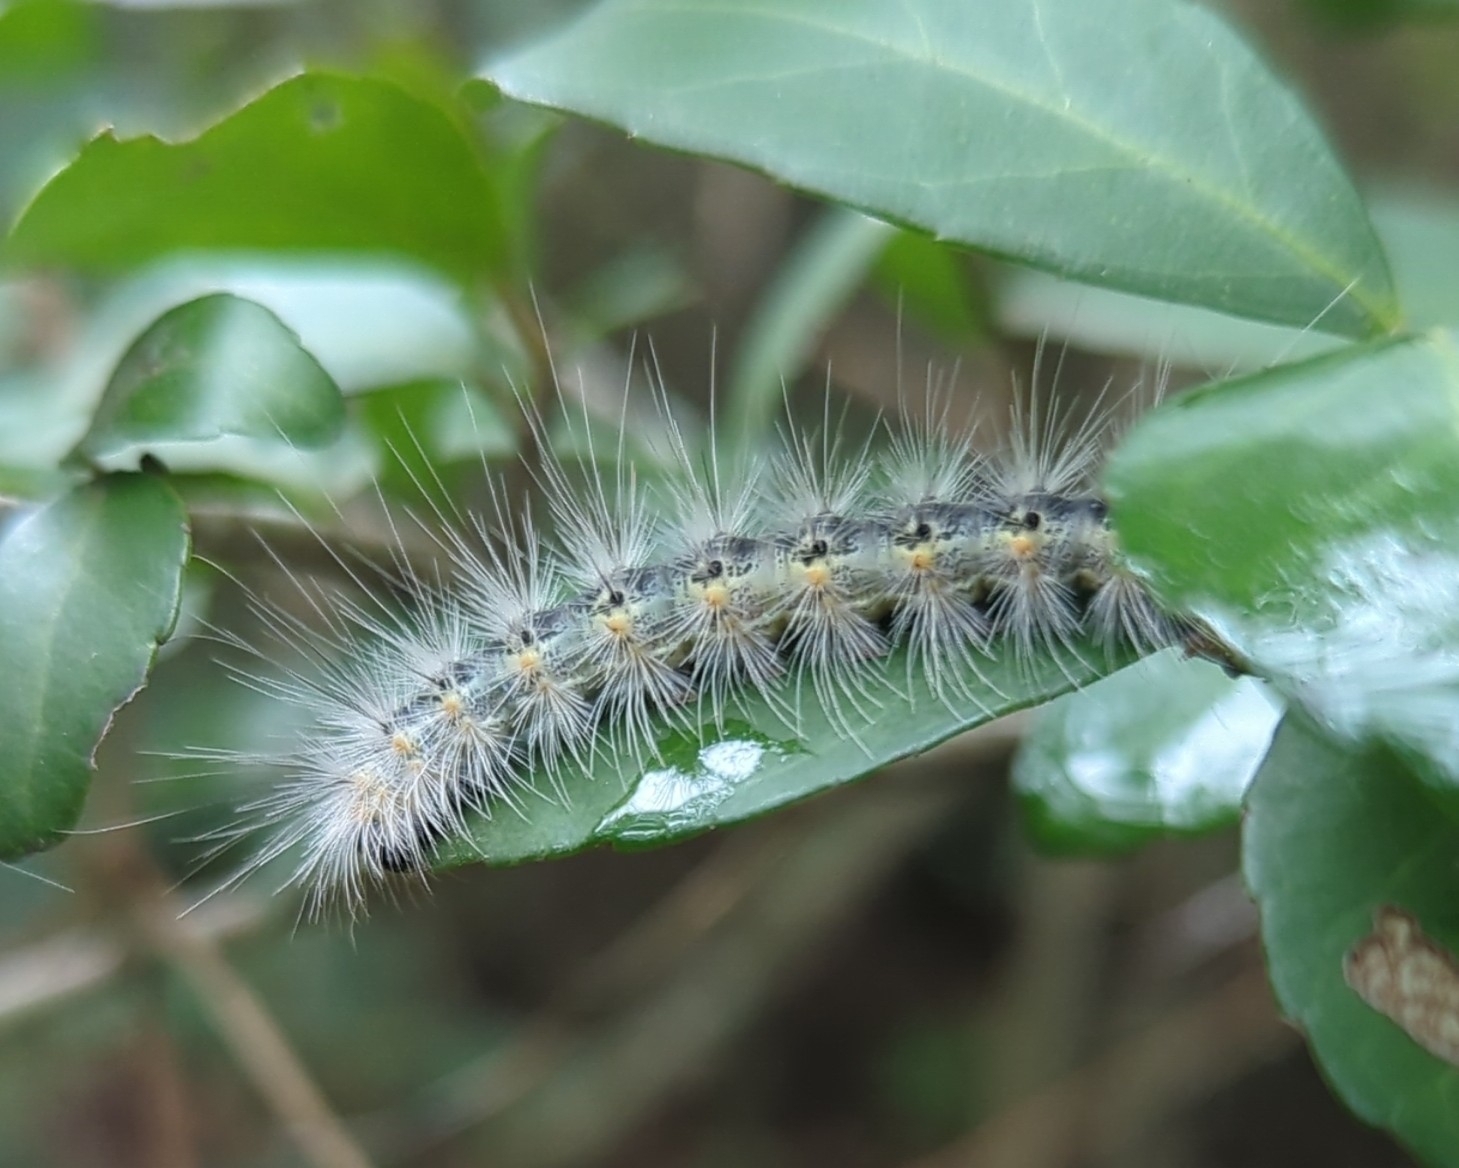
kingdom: Animalia
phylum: Arthropoda
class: Insecta
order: Lepidoptera
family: Erebidae
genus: Hyphantria
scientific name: Hyphantria cunea
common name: American white moth
